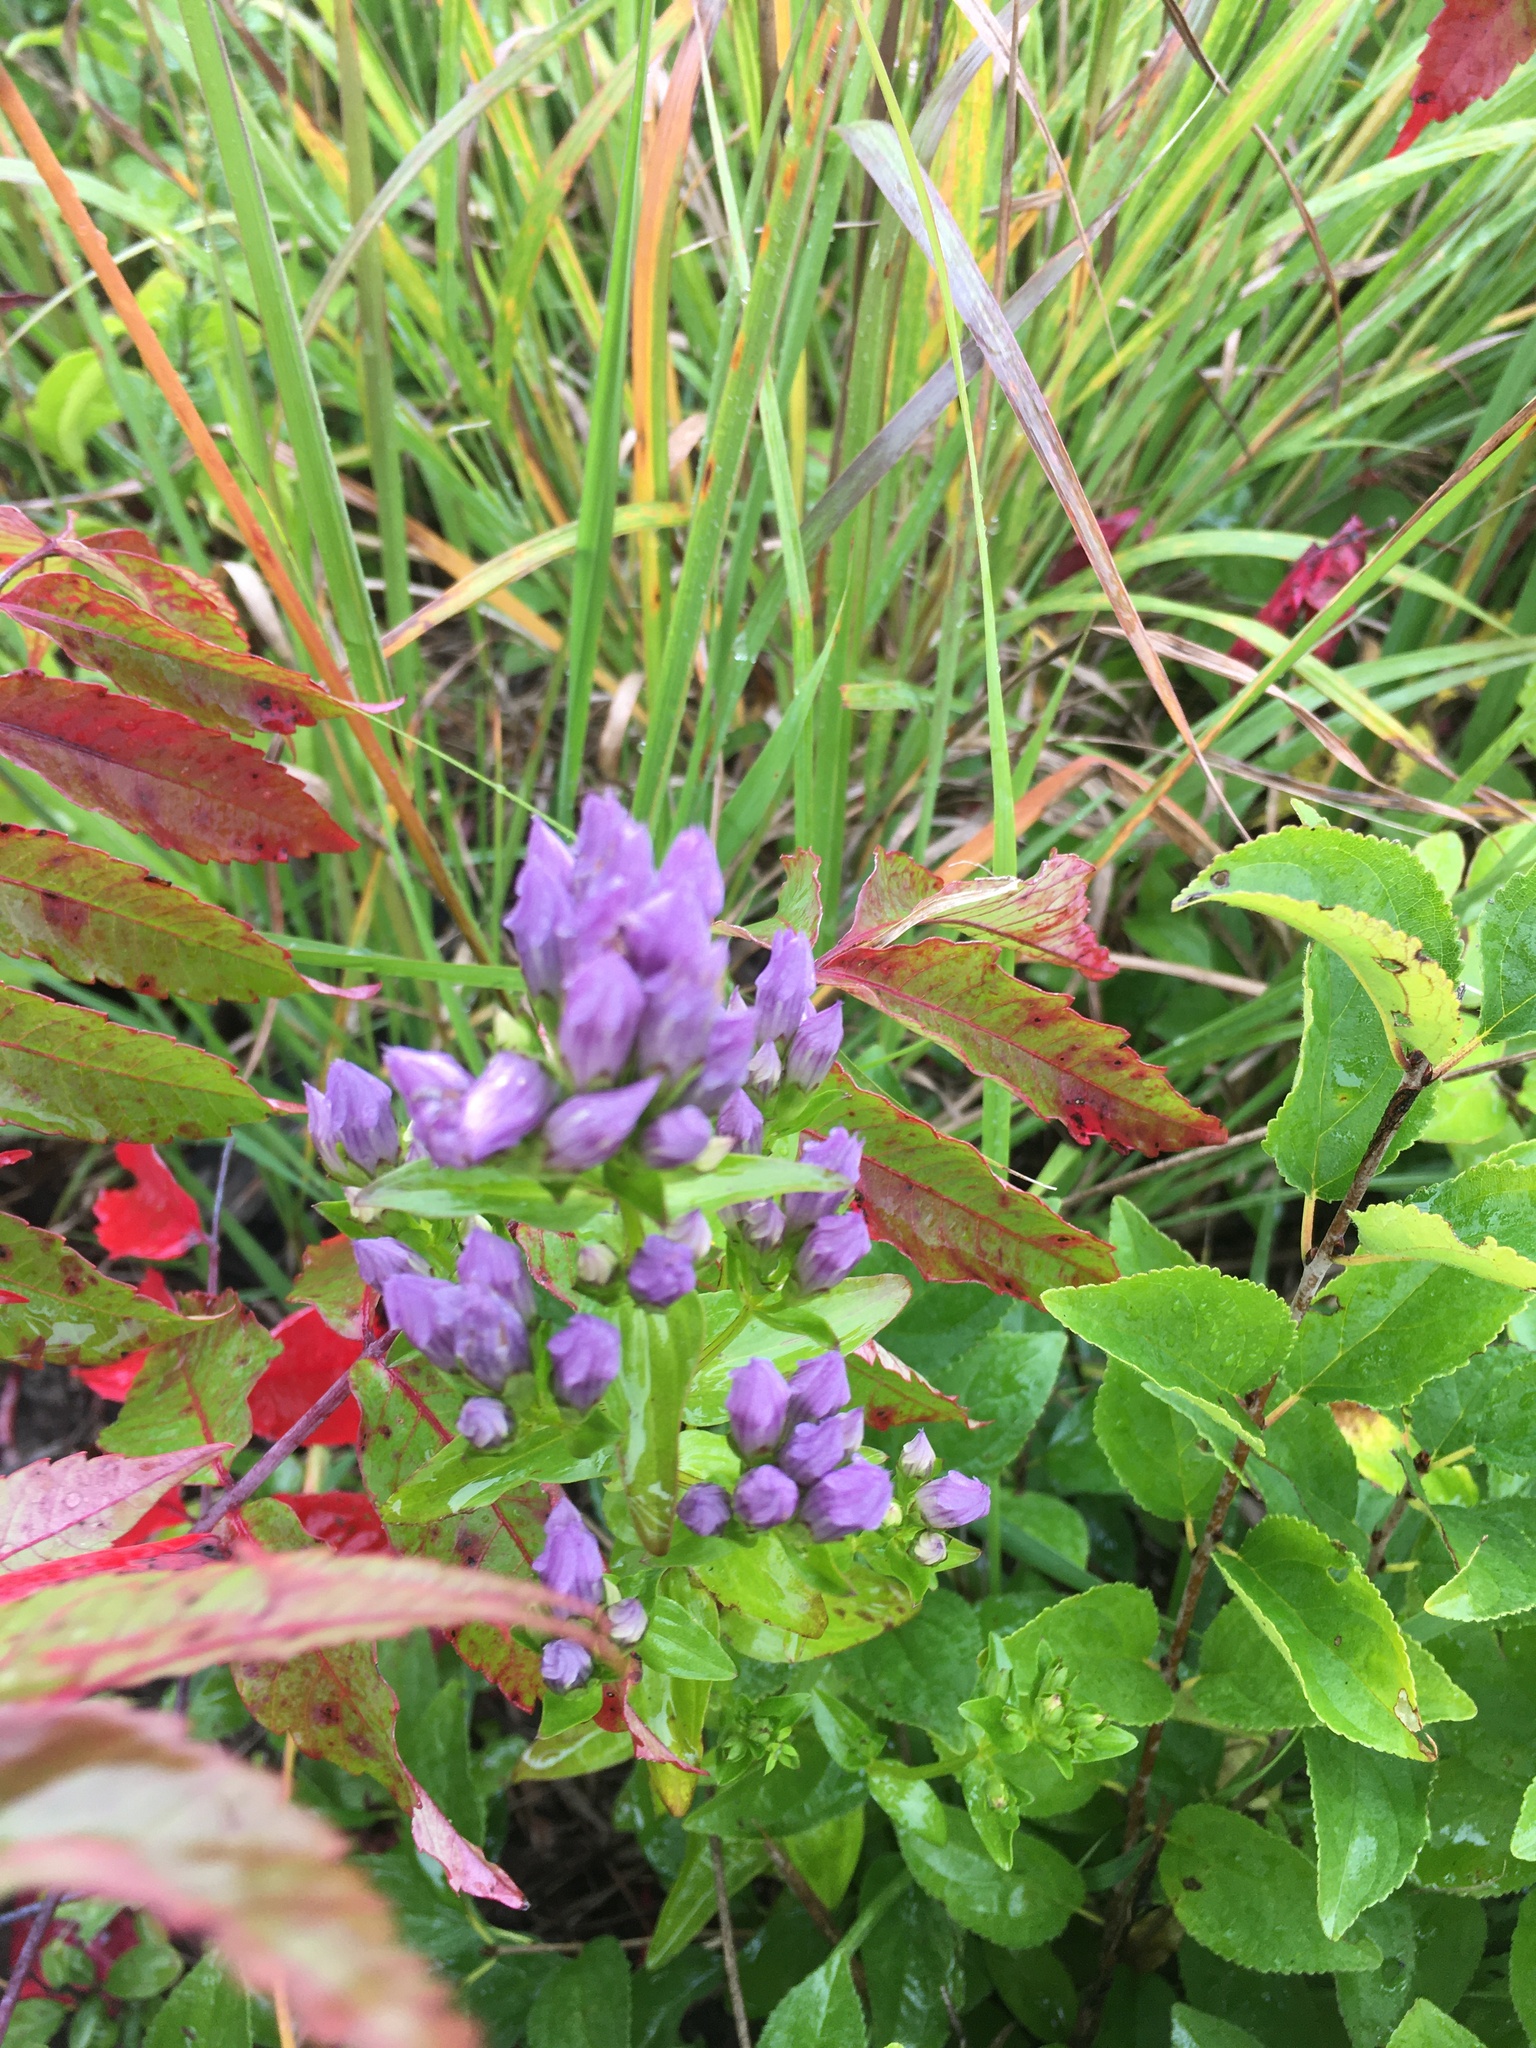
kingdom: Plantae
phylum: Tracheophyta
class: Magnoliopsida
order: Gentianales
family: Gentianaceae
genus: Gentianella
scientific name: Gentianella quinquefolia
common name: Agueweed
